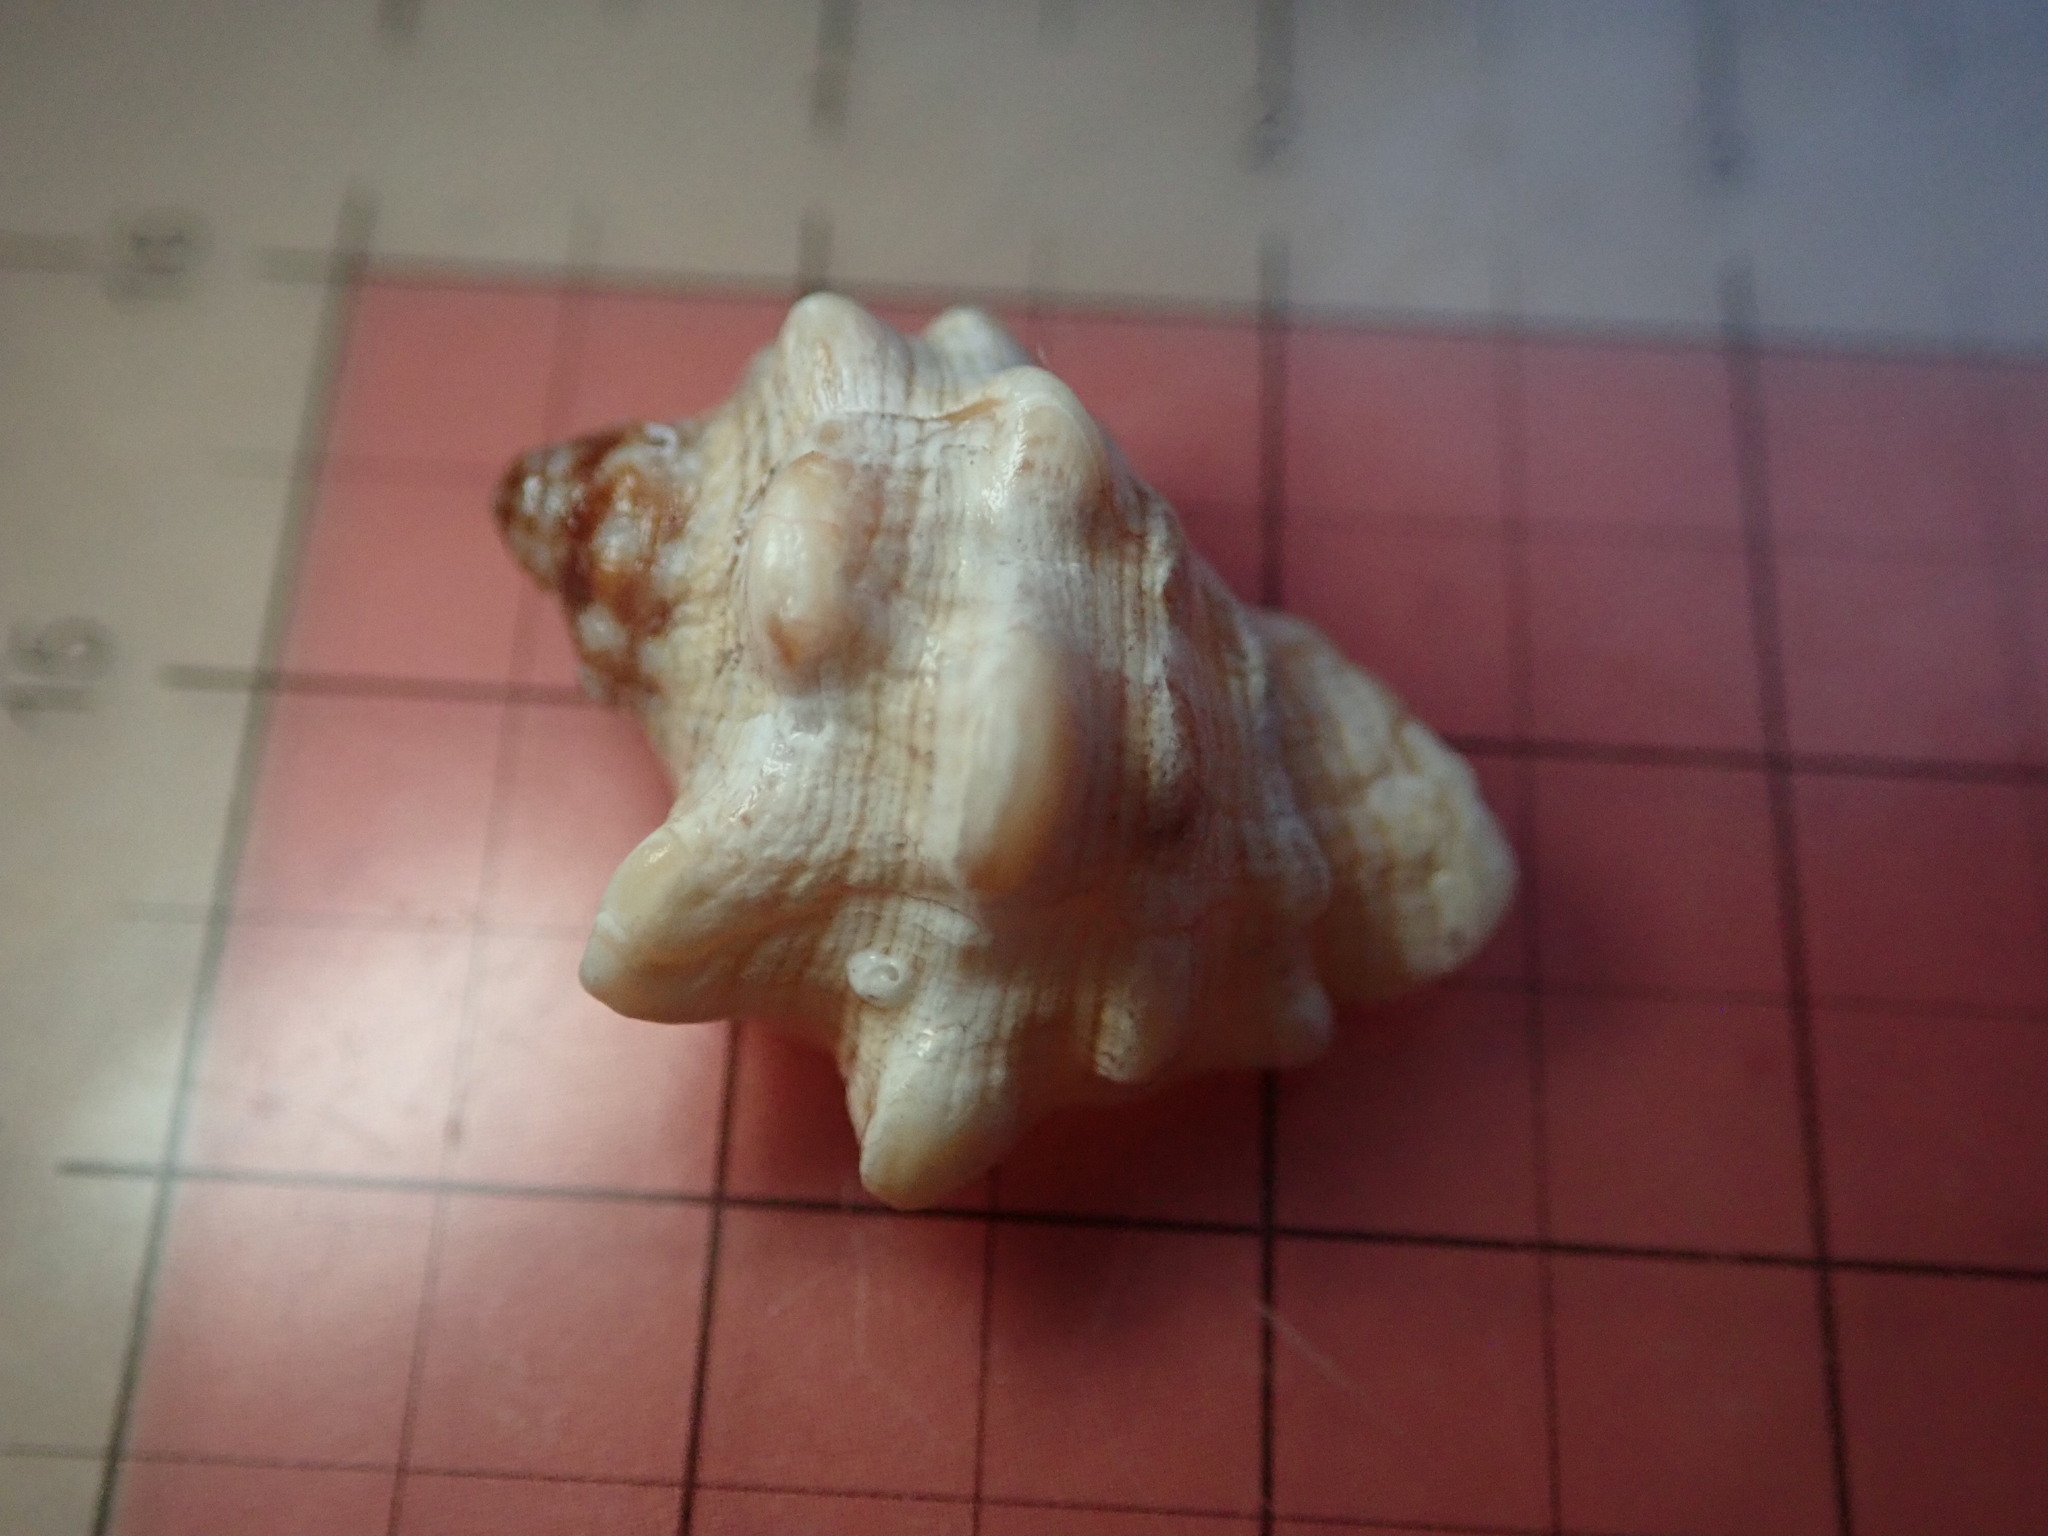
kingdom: Animalia
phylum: Mollusca
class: Gastropoda
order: Neogastropoda
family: Muricidae
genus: Neorapana
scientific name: Neorapana tuberculata
